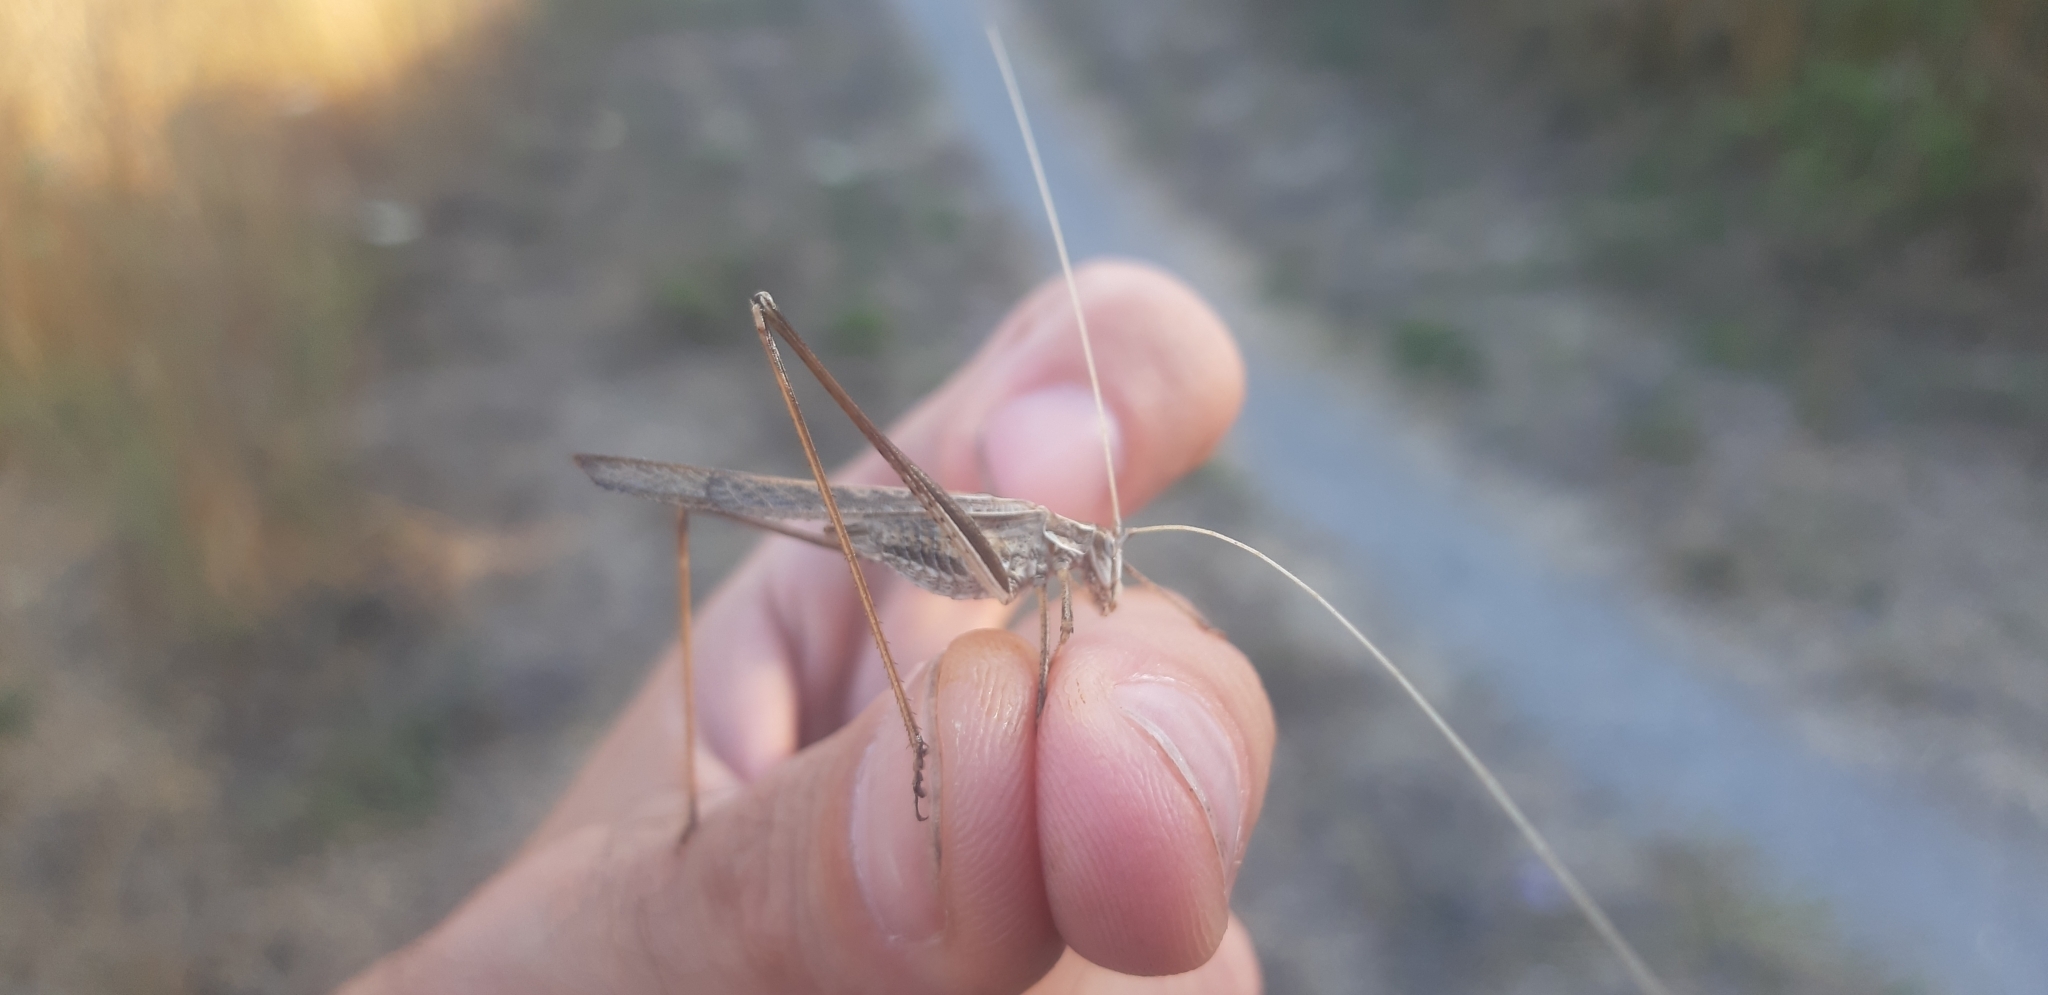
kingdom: Animalia
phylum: Arthropoda
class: Insecta
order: Orthoptera
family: Tettigoniidae
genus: Tylopsis
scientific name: Tylopsis lilifolia
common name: Lily bush-cricket
